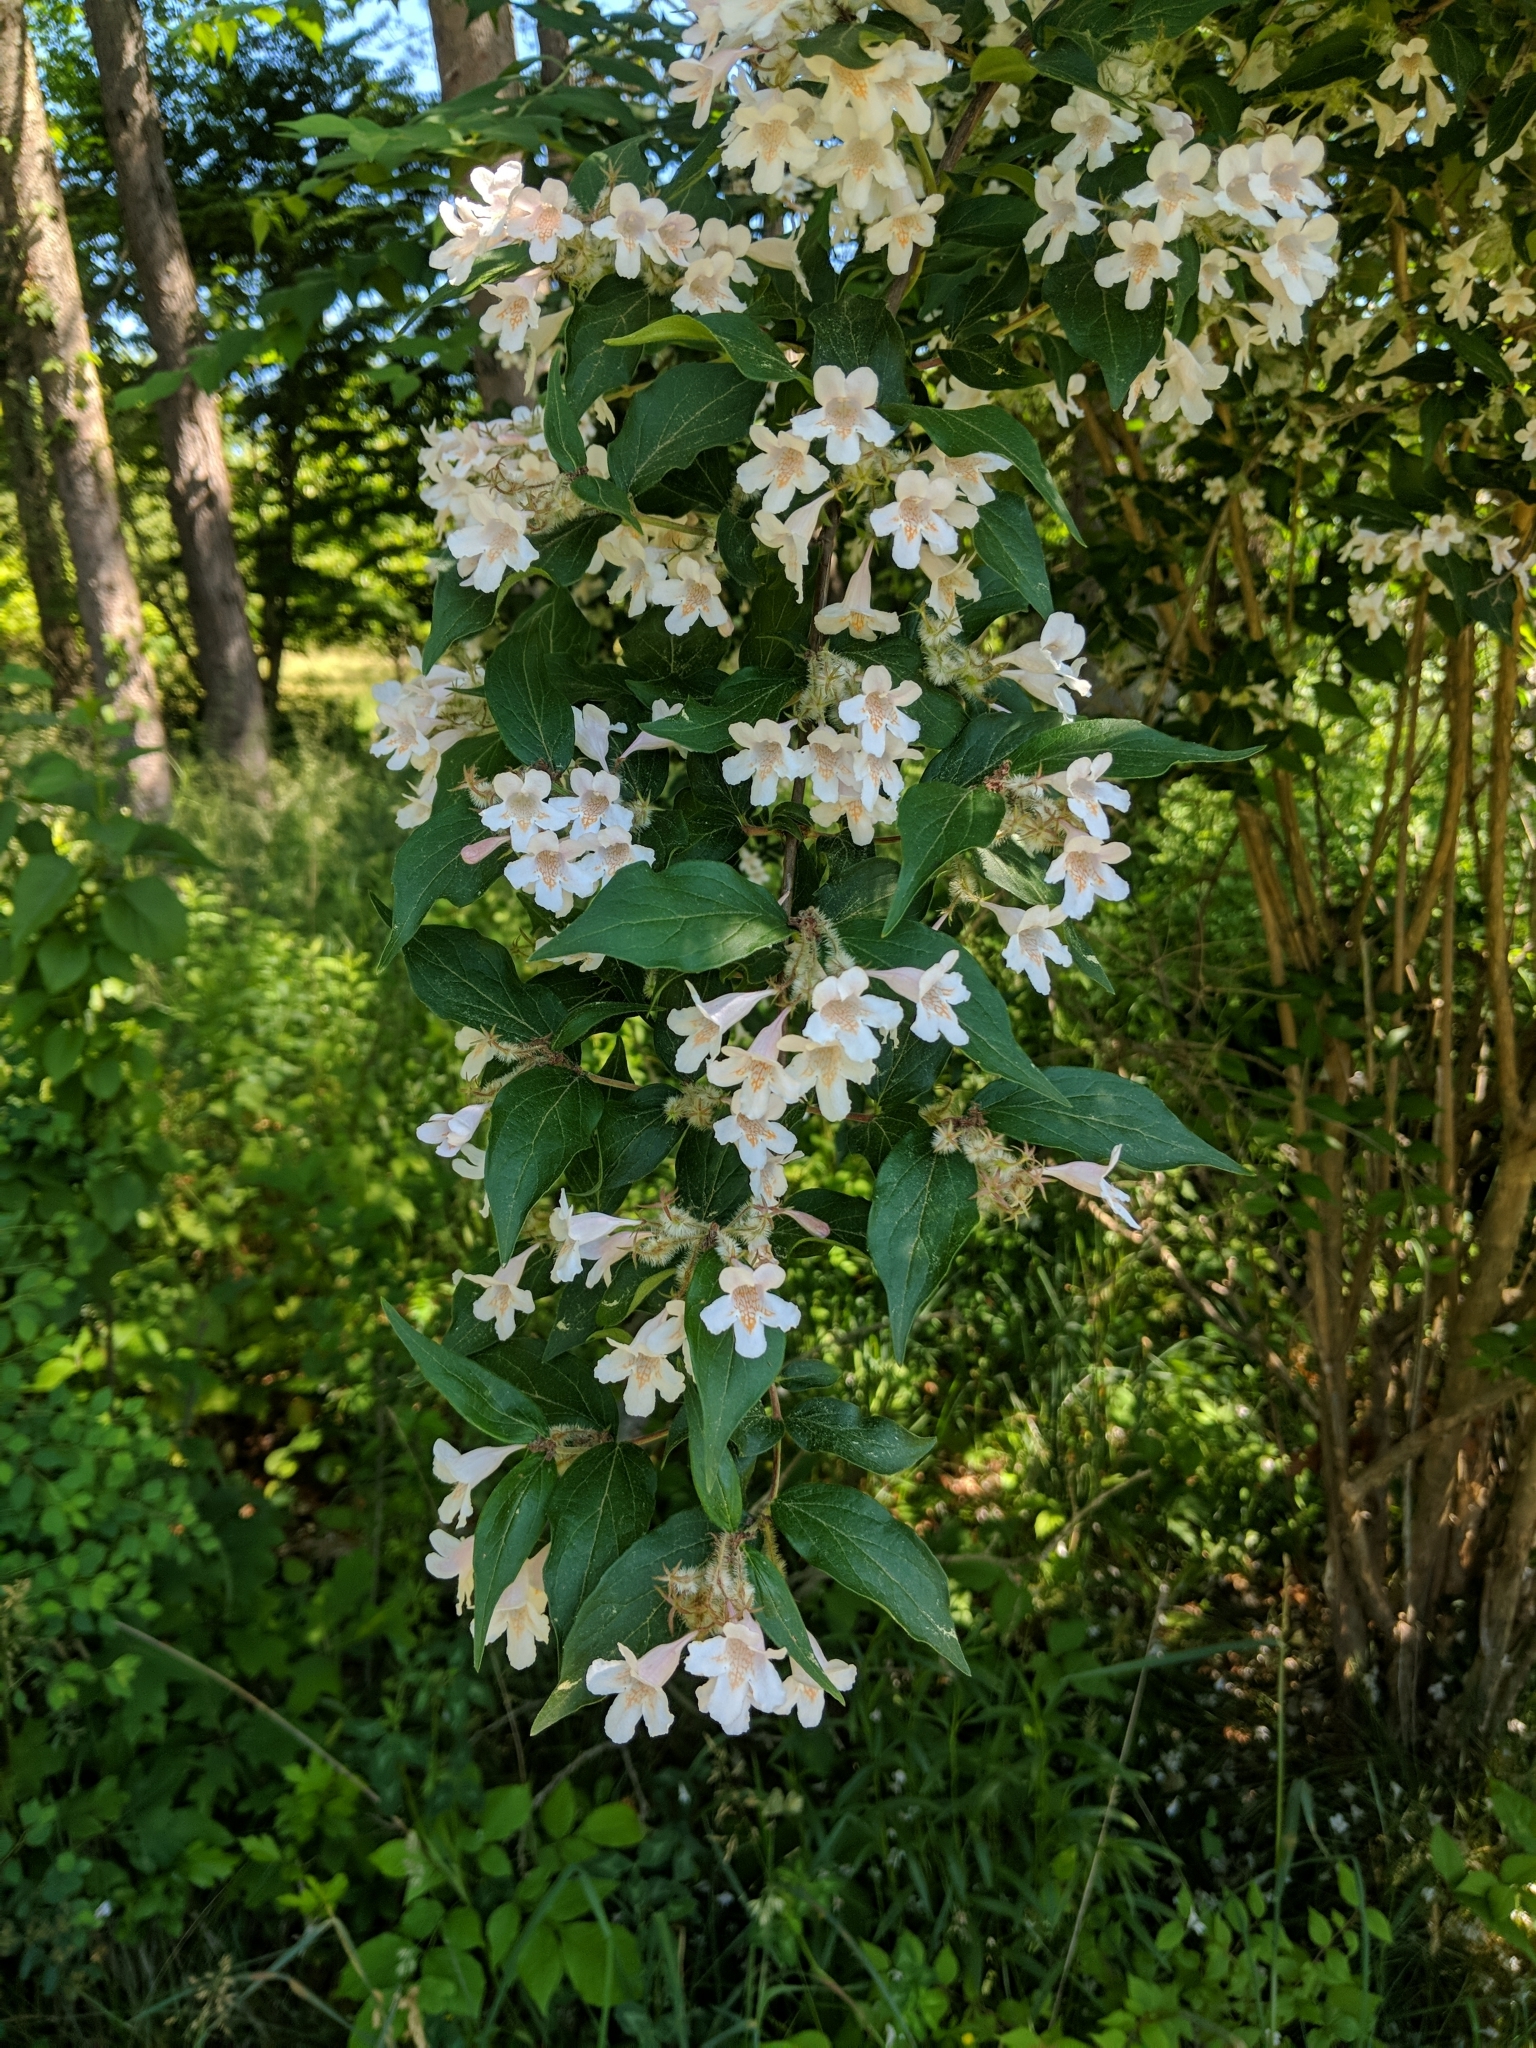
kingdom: Plantae
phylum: Tracheophyta
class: Magnoliopsida
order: Dipsacales
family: Caprifoliaceae
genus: Kolkwitzia
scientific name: Kolkwitzia amabilis
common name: Beautybush
